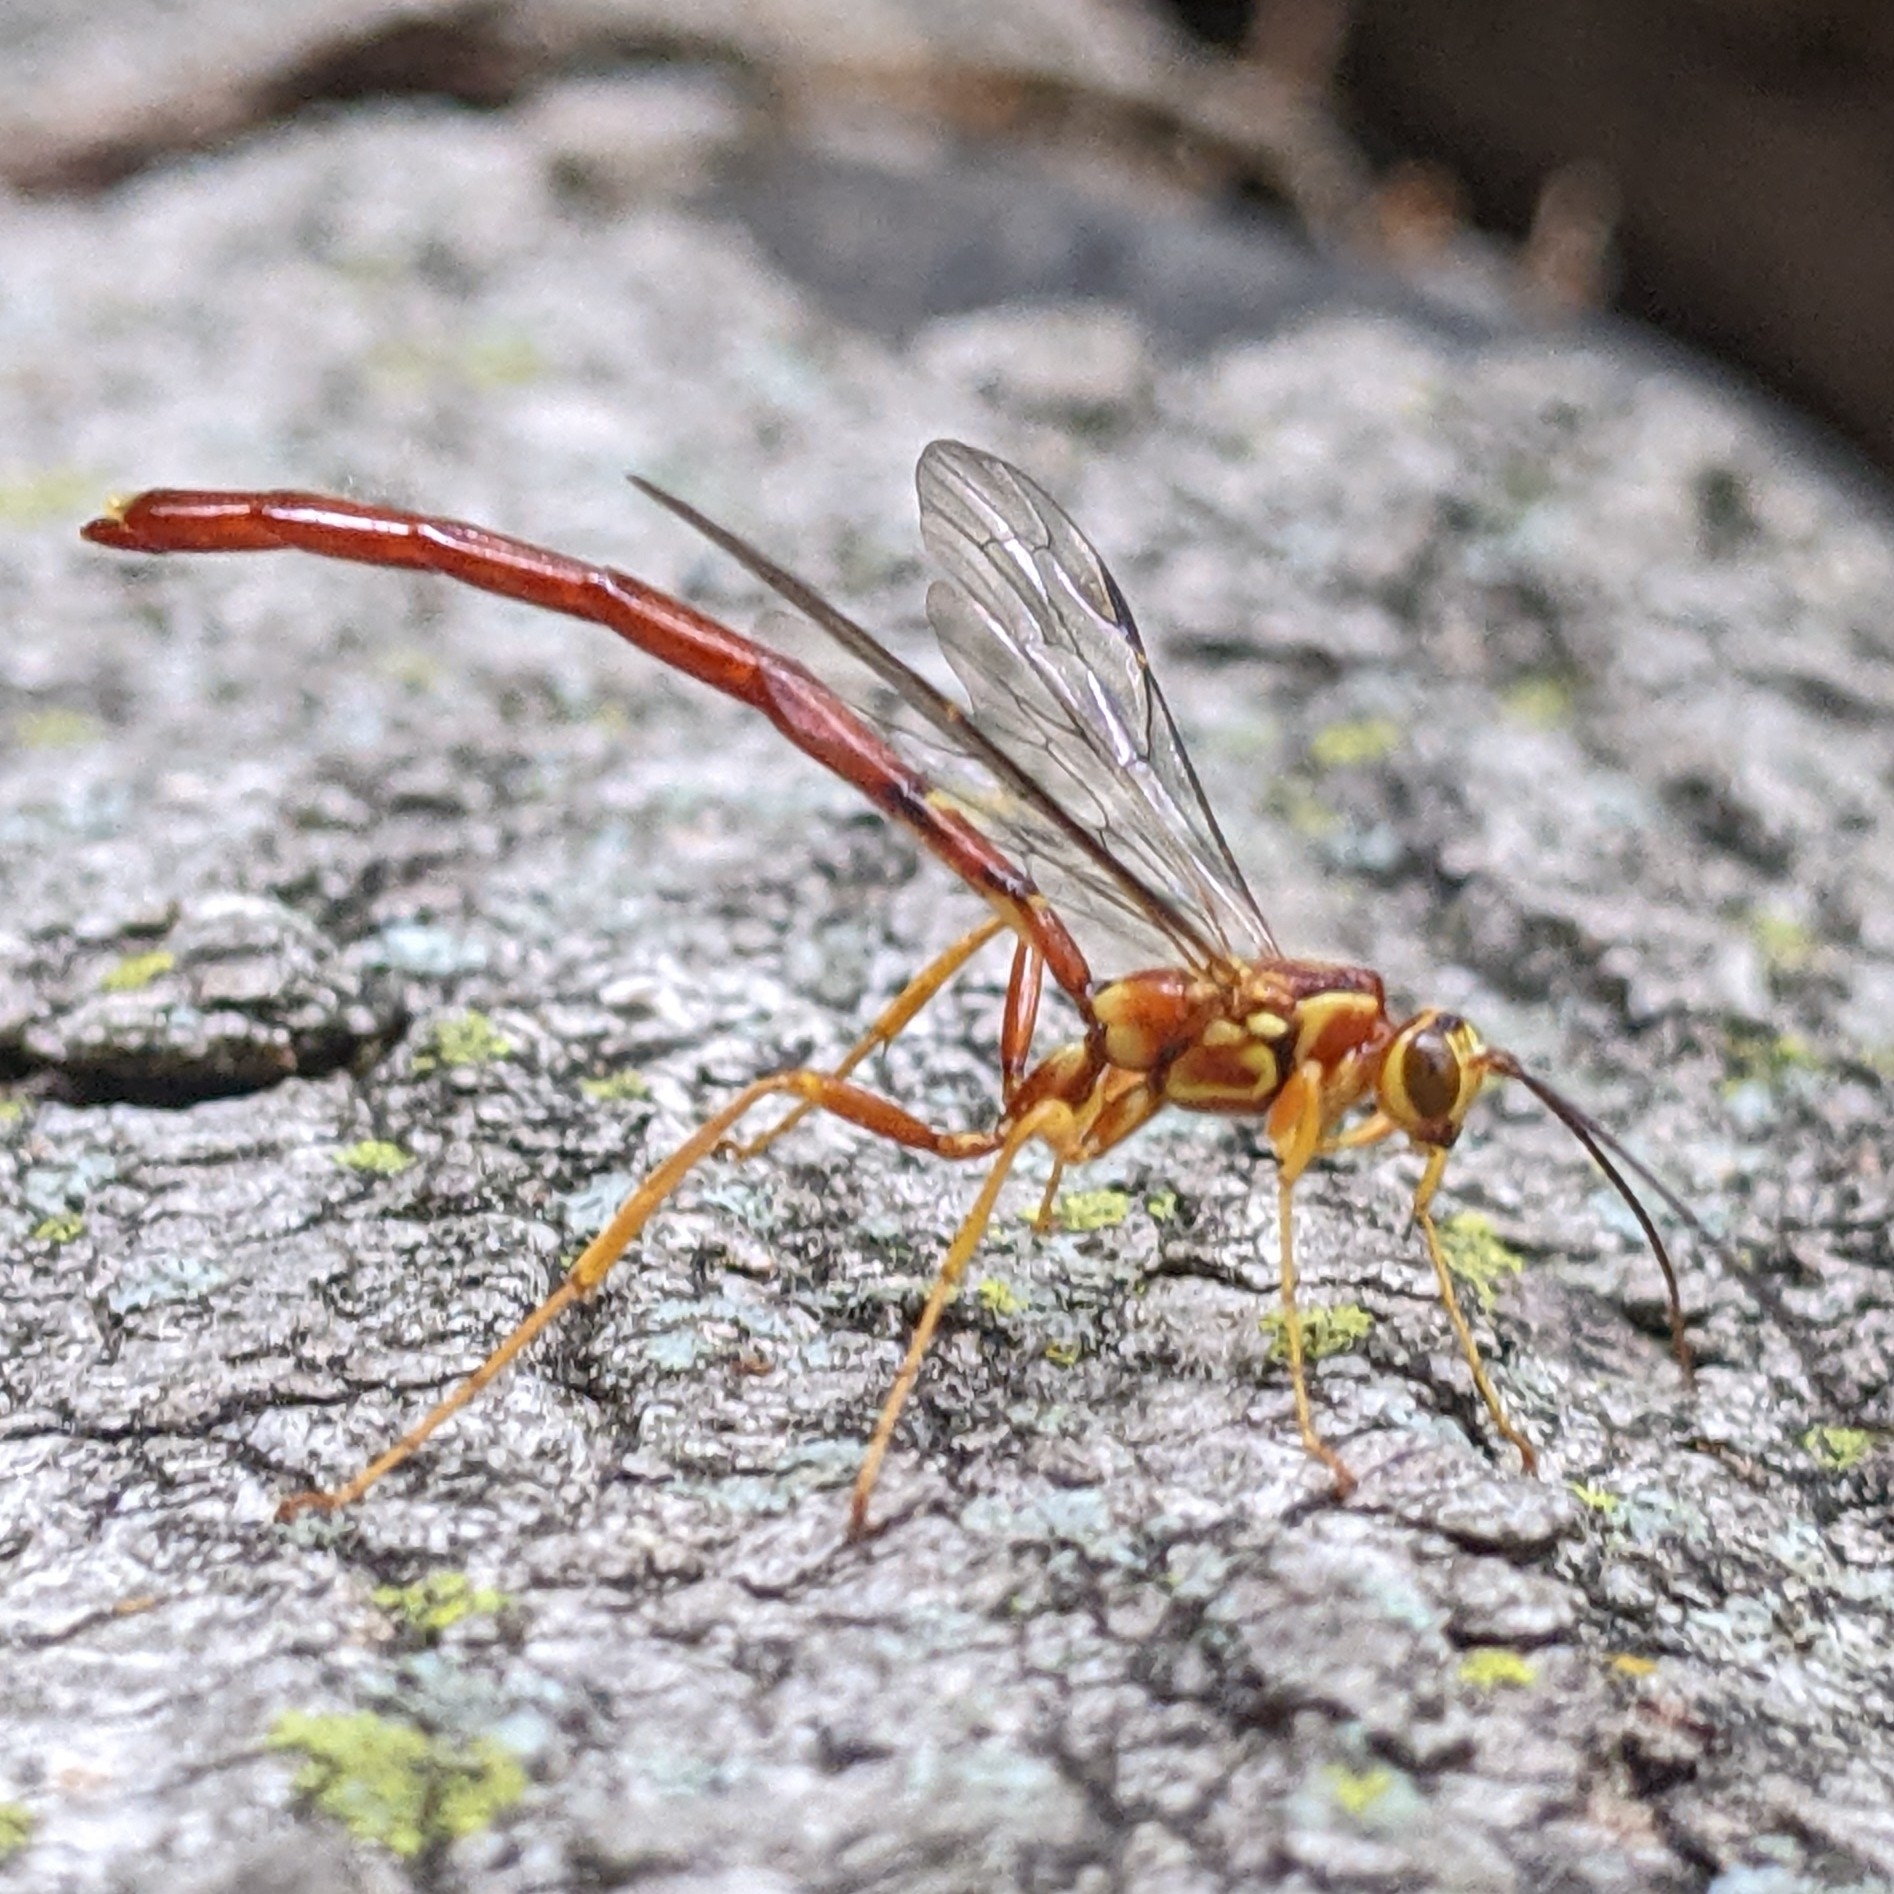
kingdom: Animalia
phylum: Arthropoda
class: Insecta
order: Hymenoptera
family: Ichneumonidae
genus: Megarhyssa
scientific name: Megarhyssa greenei
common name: Greene's giant ichneumonid wasp
